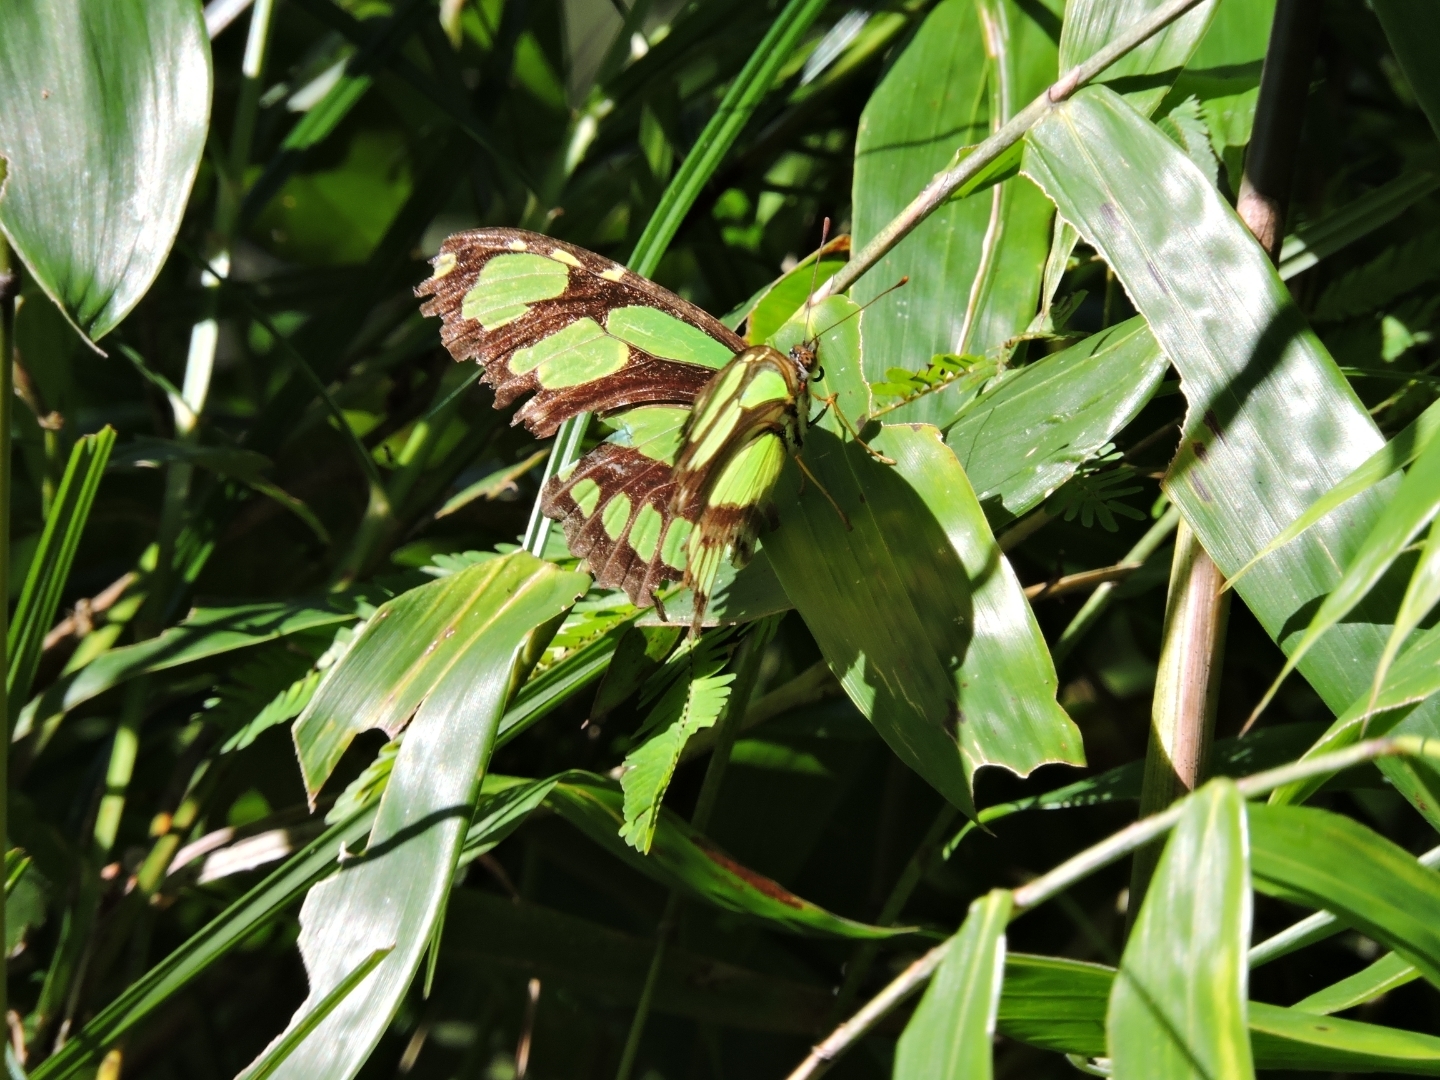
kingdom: Animalia
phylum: Arthropoda
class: Insecta
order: Lepidoptera
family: Nymphalidae
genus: Philaethria
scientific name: Philaethria dido
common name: Scarce bamboo page
